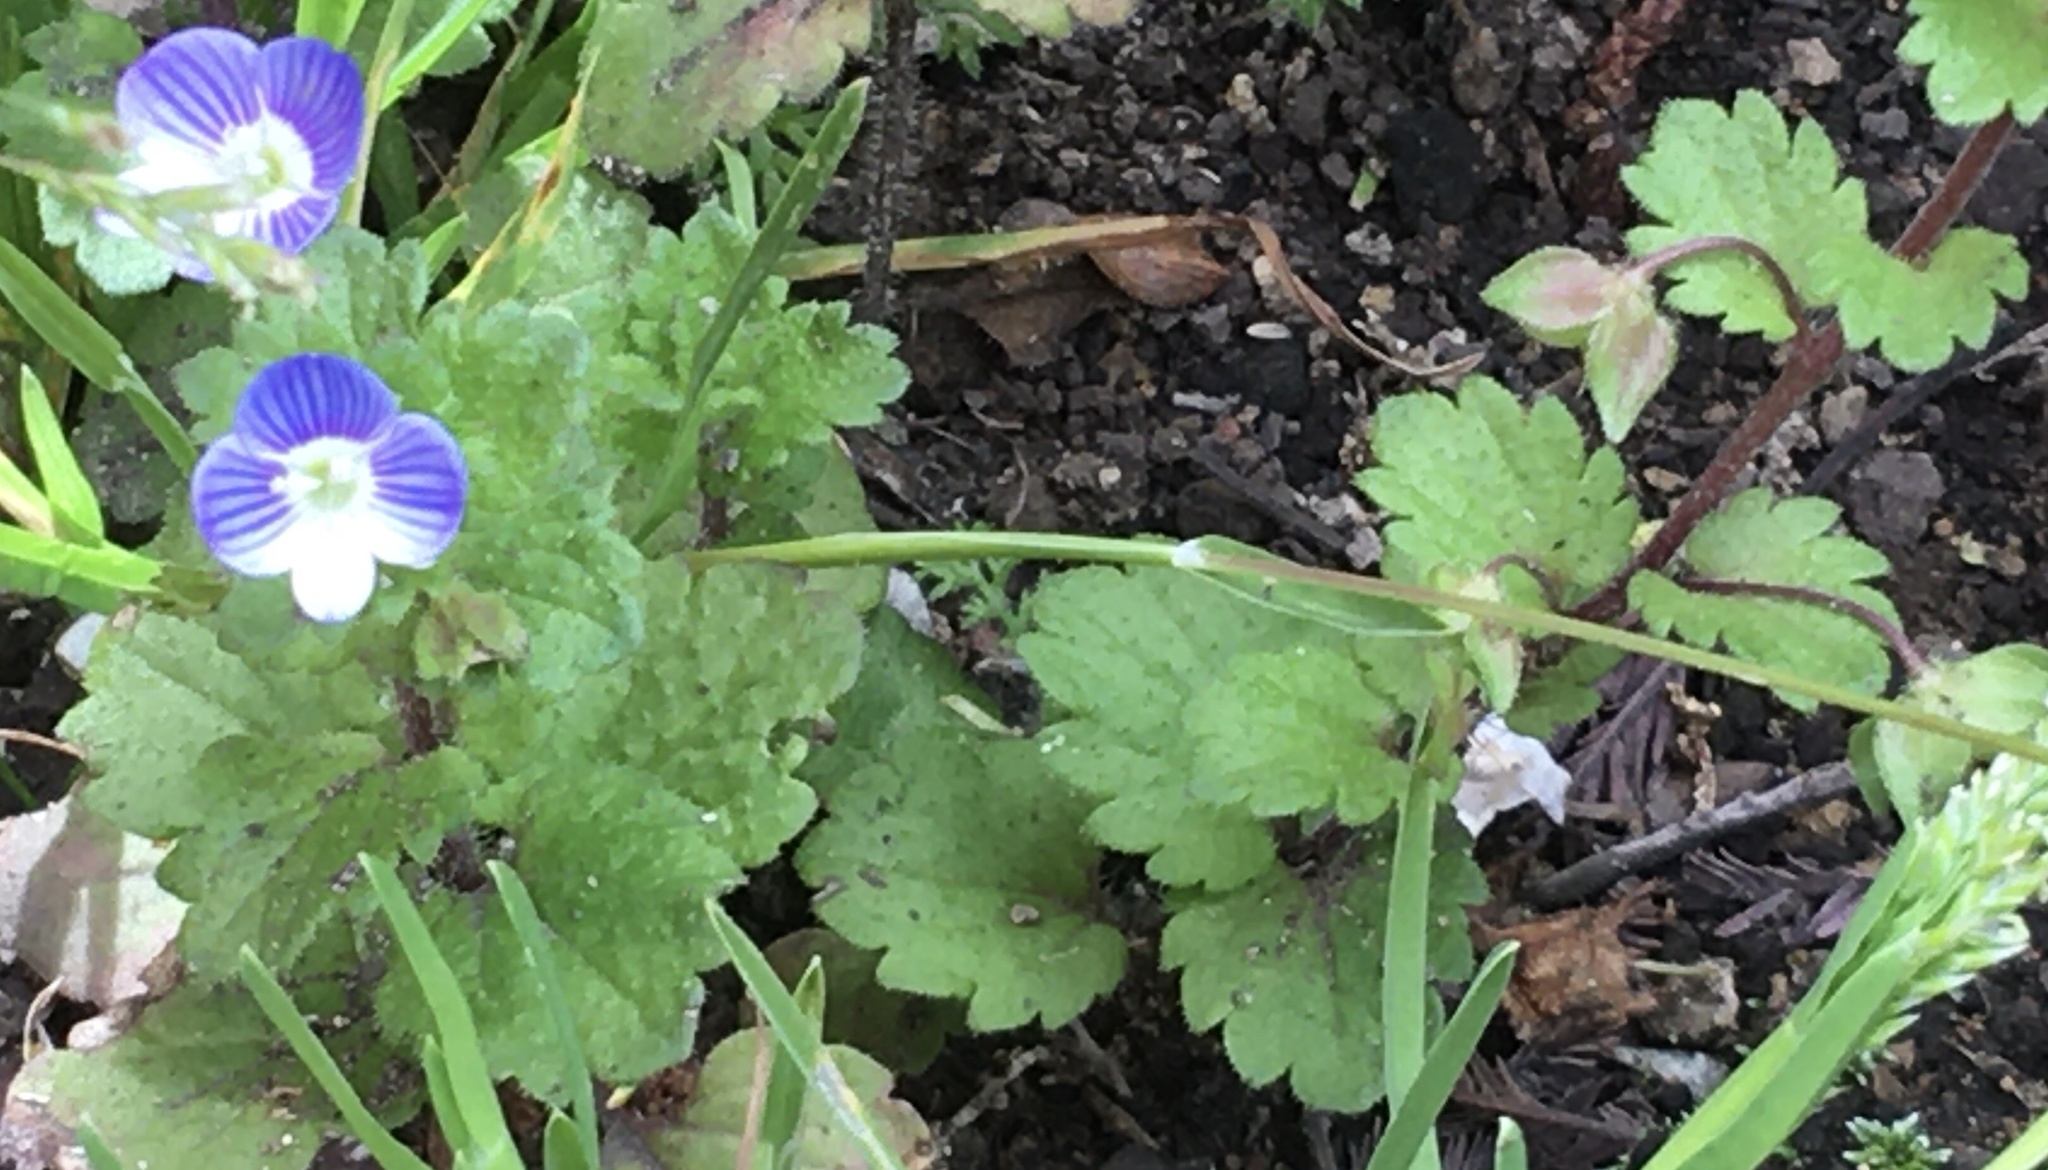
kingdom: Plantae
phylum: Tracheophyta
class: Magnoliopsida
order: Lamiales
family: Plantaginaceae
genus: Veronica
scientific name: Veronica persica
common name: Common field-speedwell
